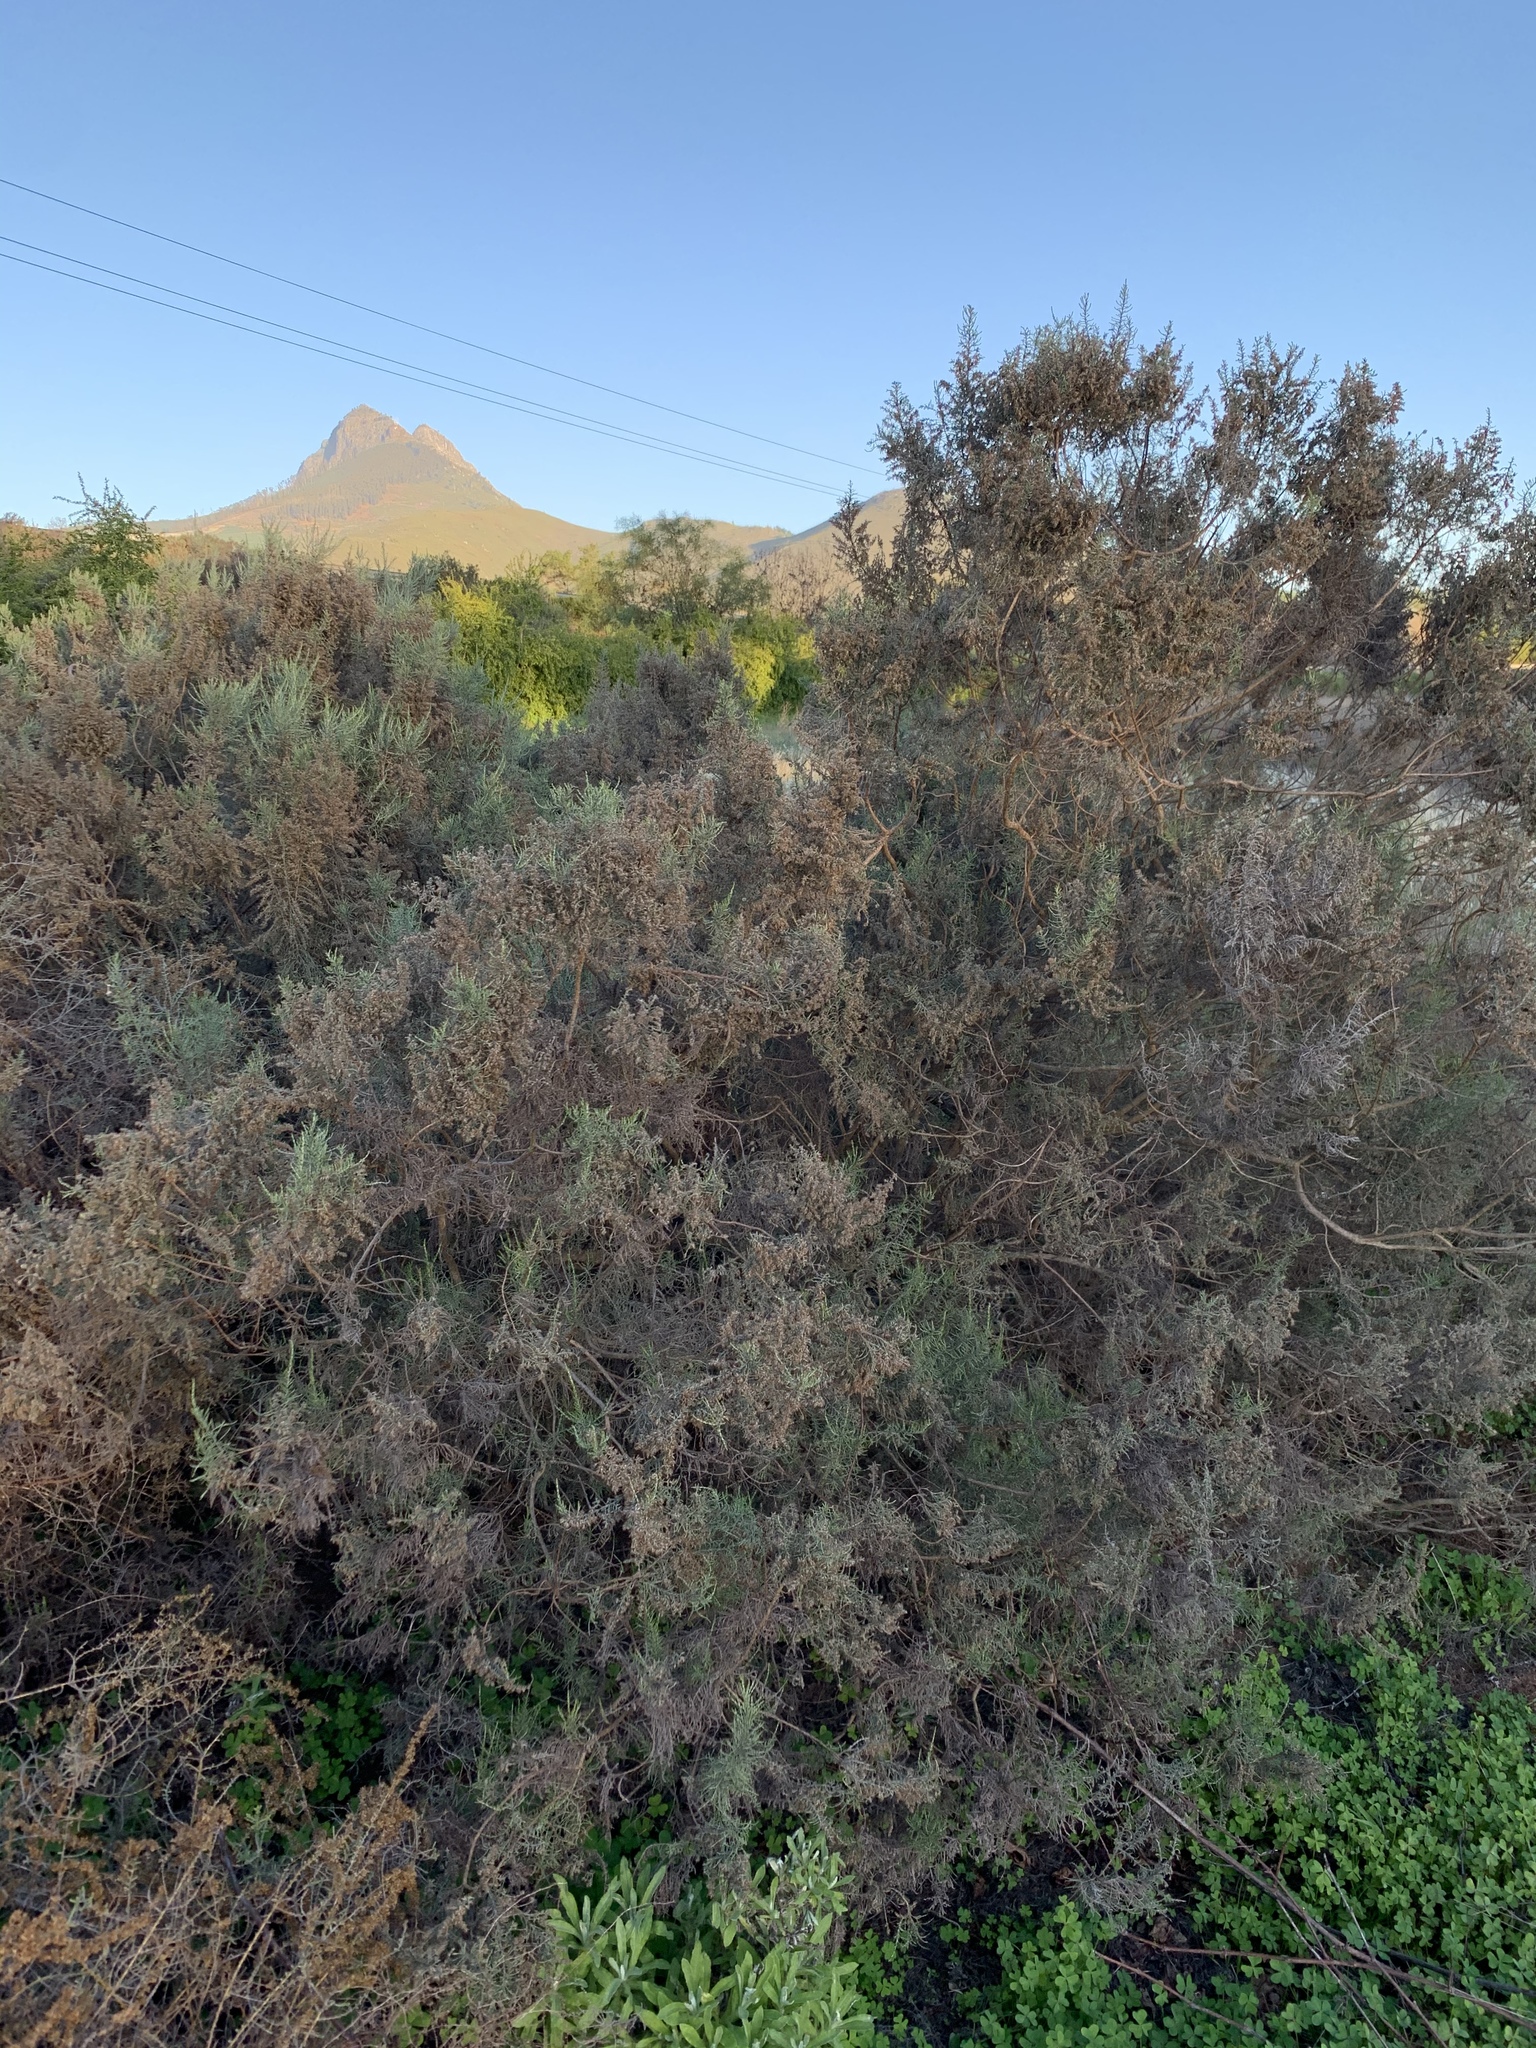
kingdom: Plantae
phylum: Tracheophyta
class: Magnoliopsida
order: Asterales
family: Asteraceae
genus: Dicerothamnus
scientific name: Dicerothamnus rhinocerotis
